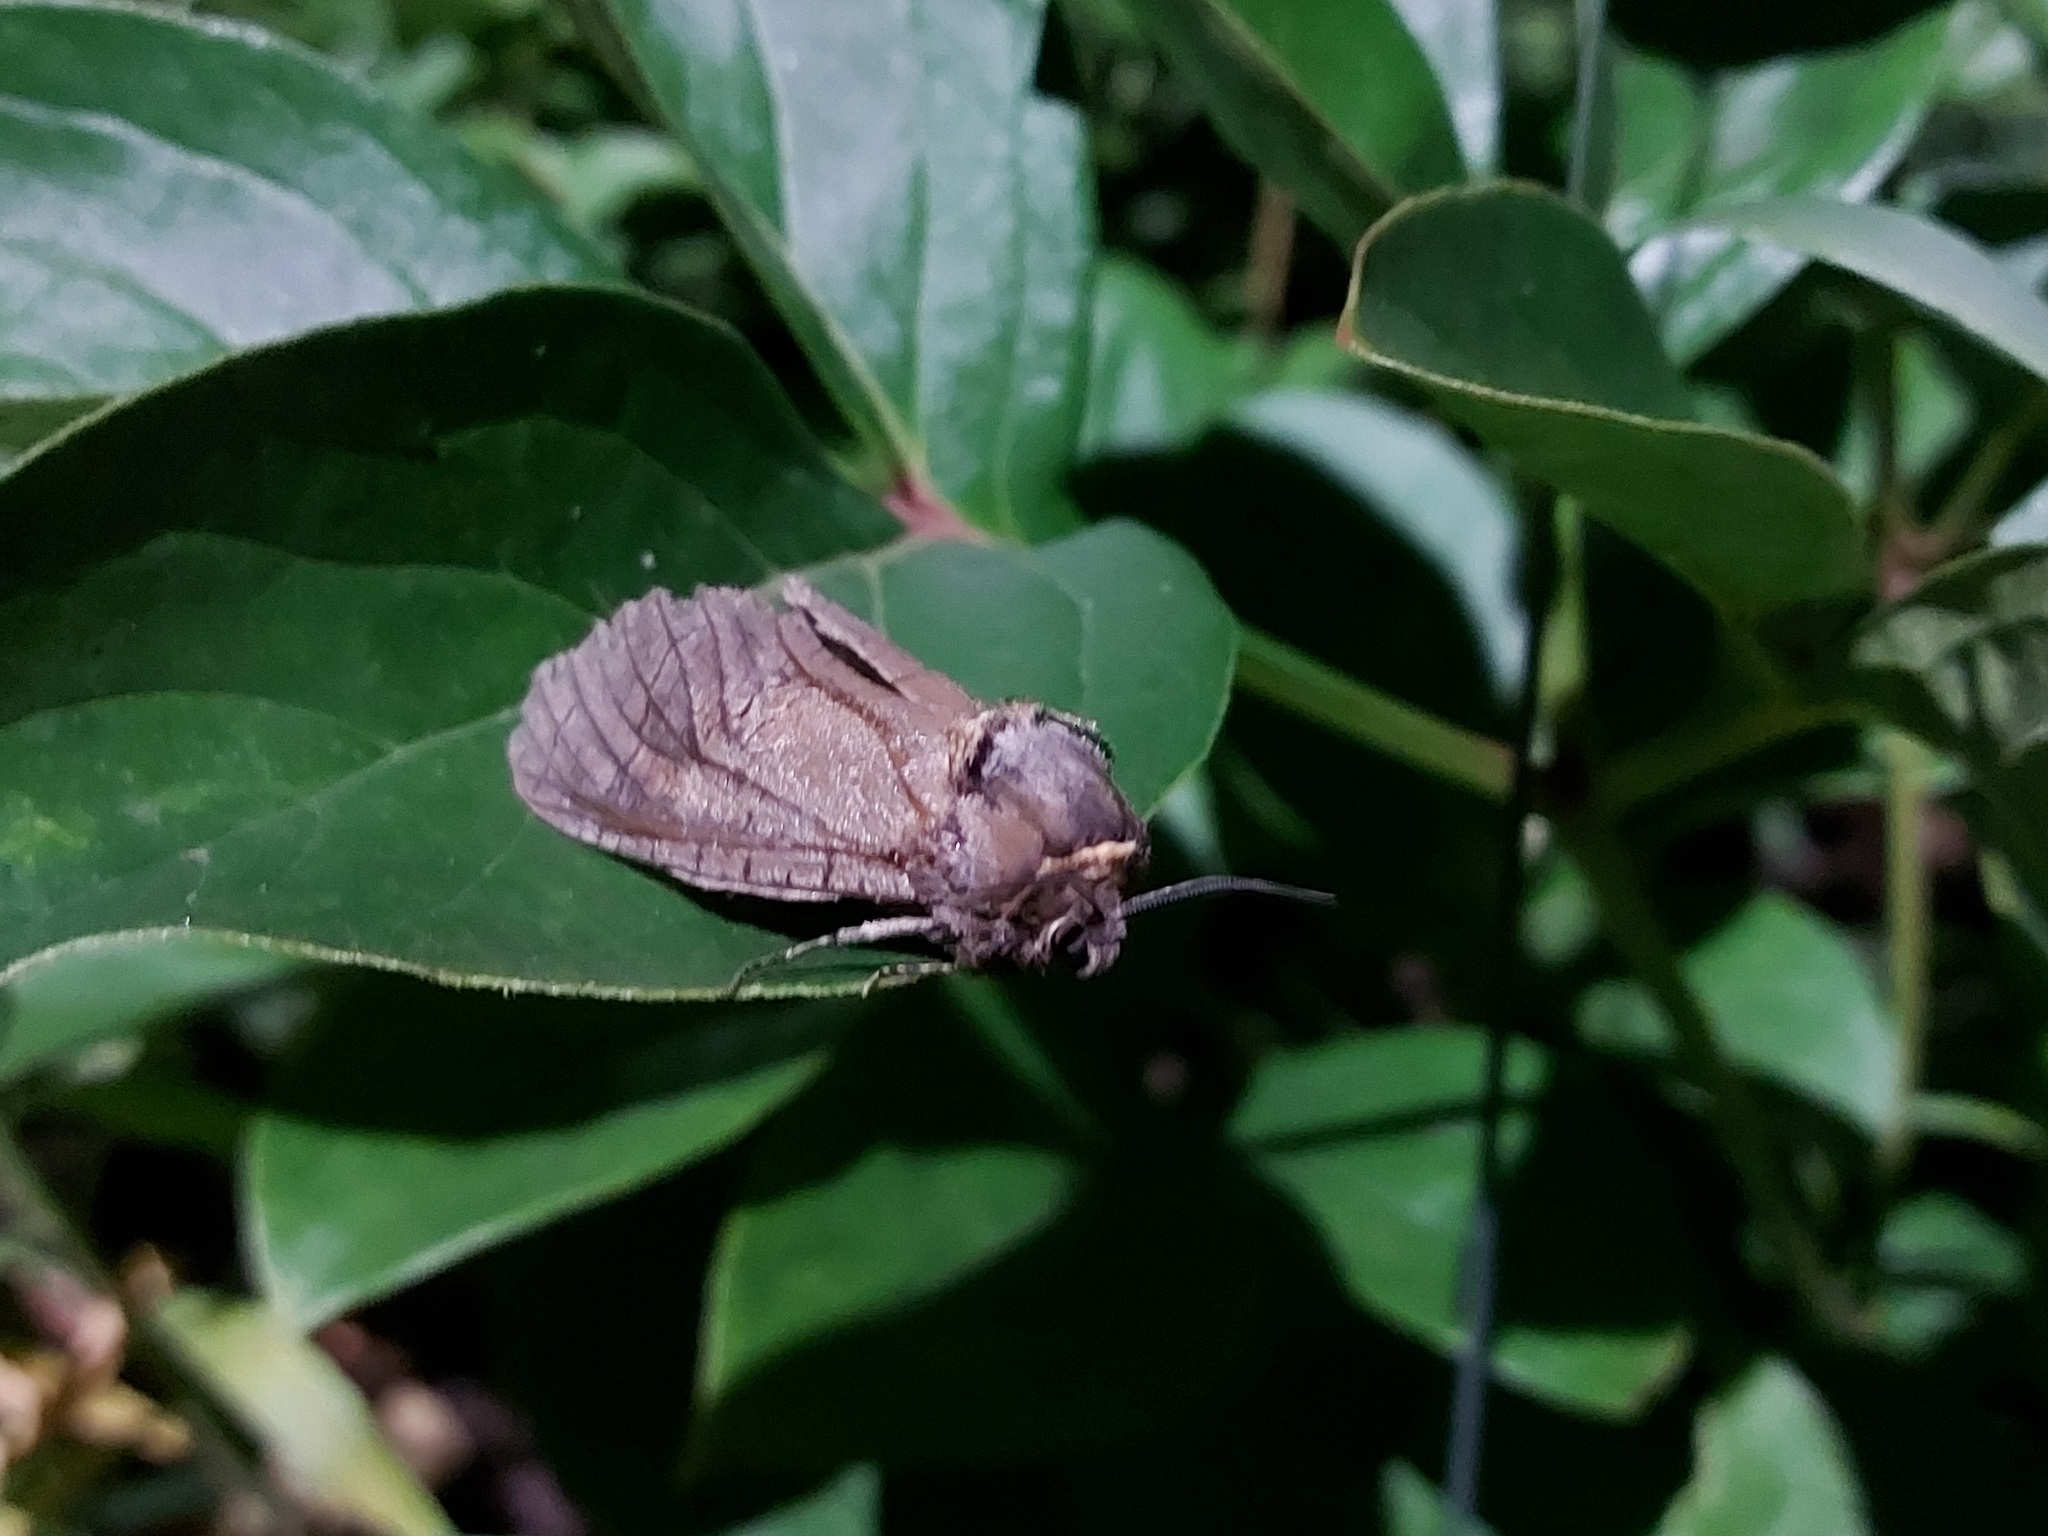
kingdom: Animalia
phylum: Arthropoda
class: Insecta
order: Lepidoptera
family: Cossidae
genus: Cossus
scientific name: Cossus cossus
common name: Goat moth
